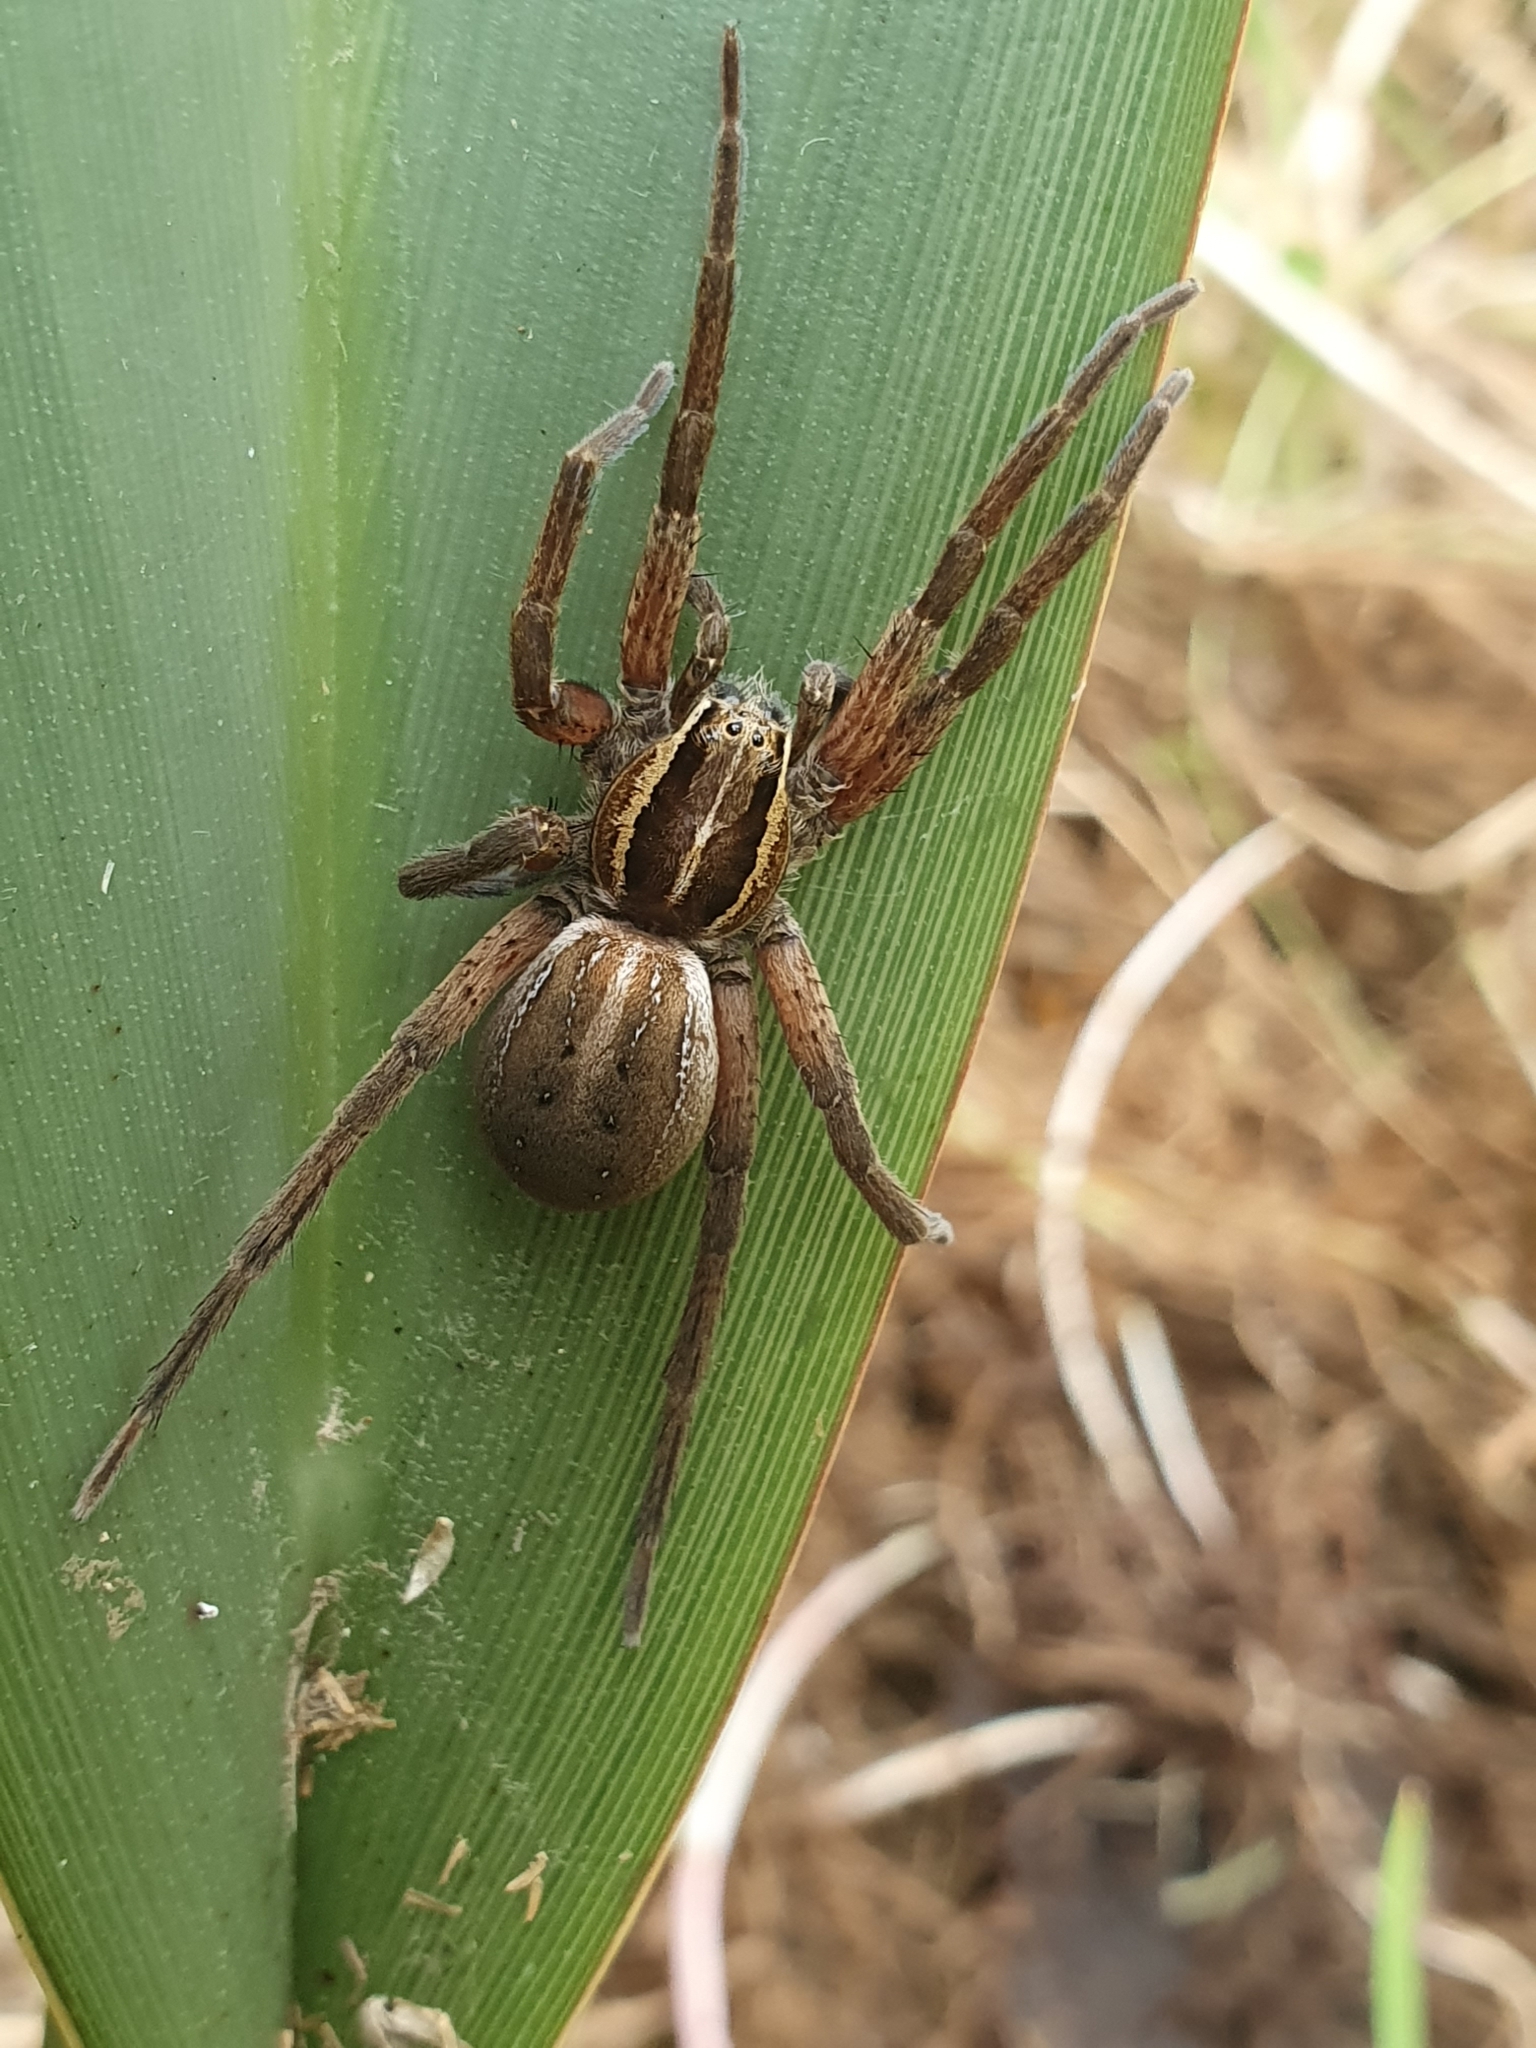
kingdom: Animalia
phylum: Arthropoda
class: Arachnida
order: Araneae
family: Pisauridae
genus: Dolomedes
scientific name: Dolomedes minor
